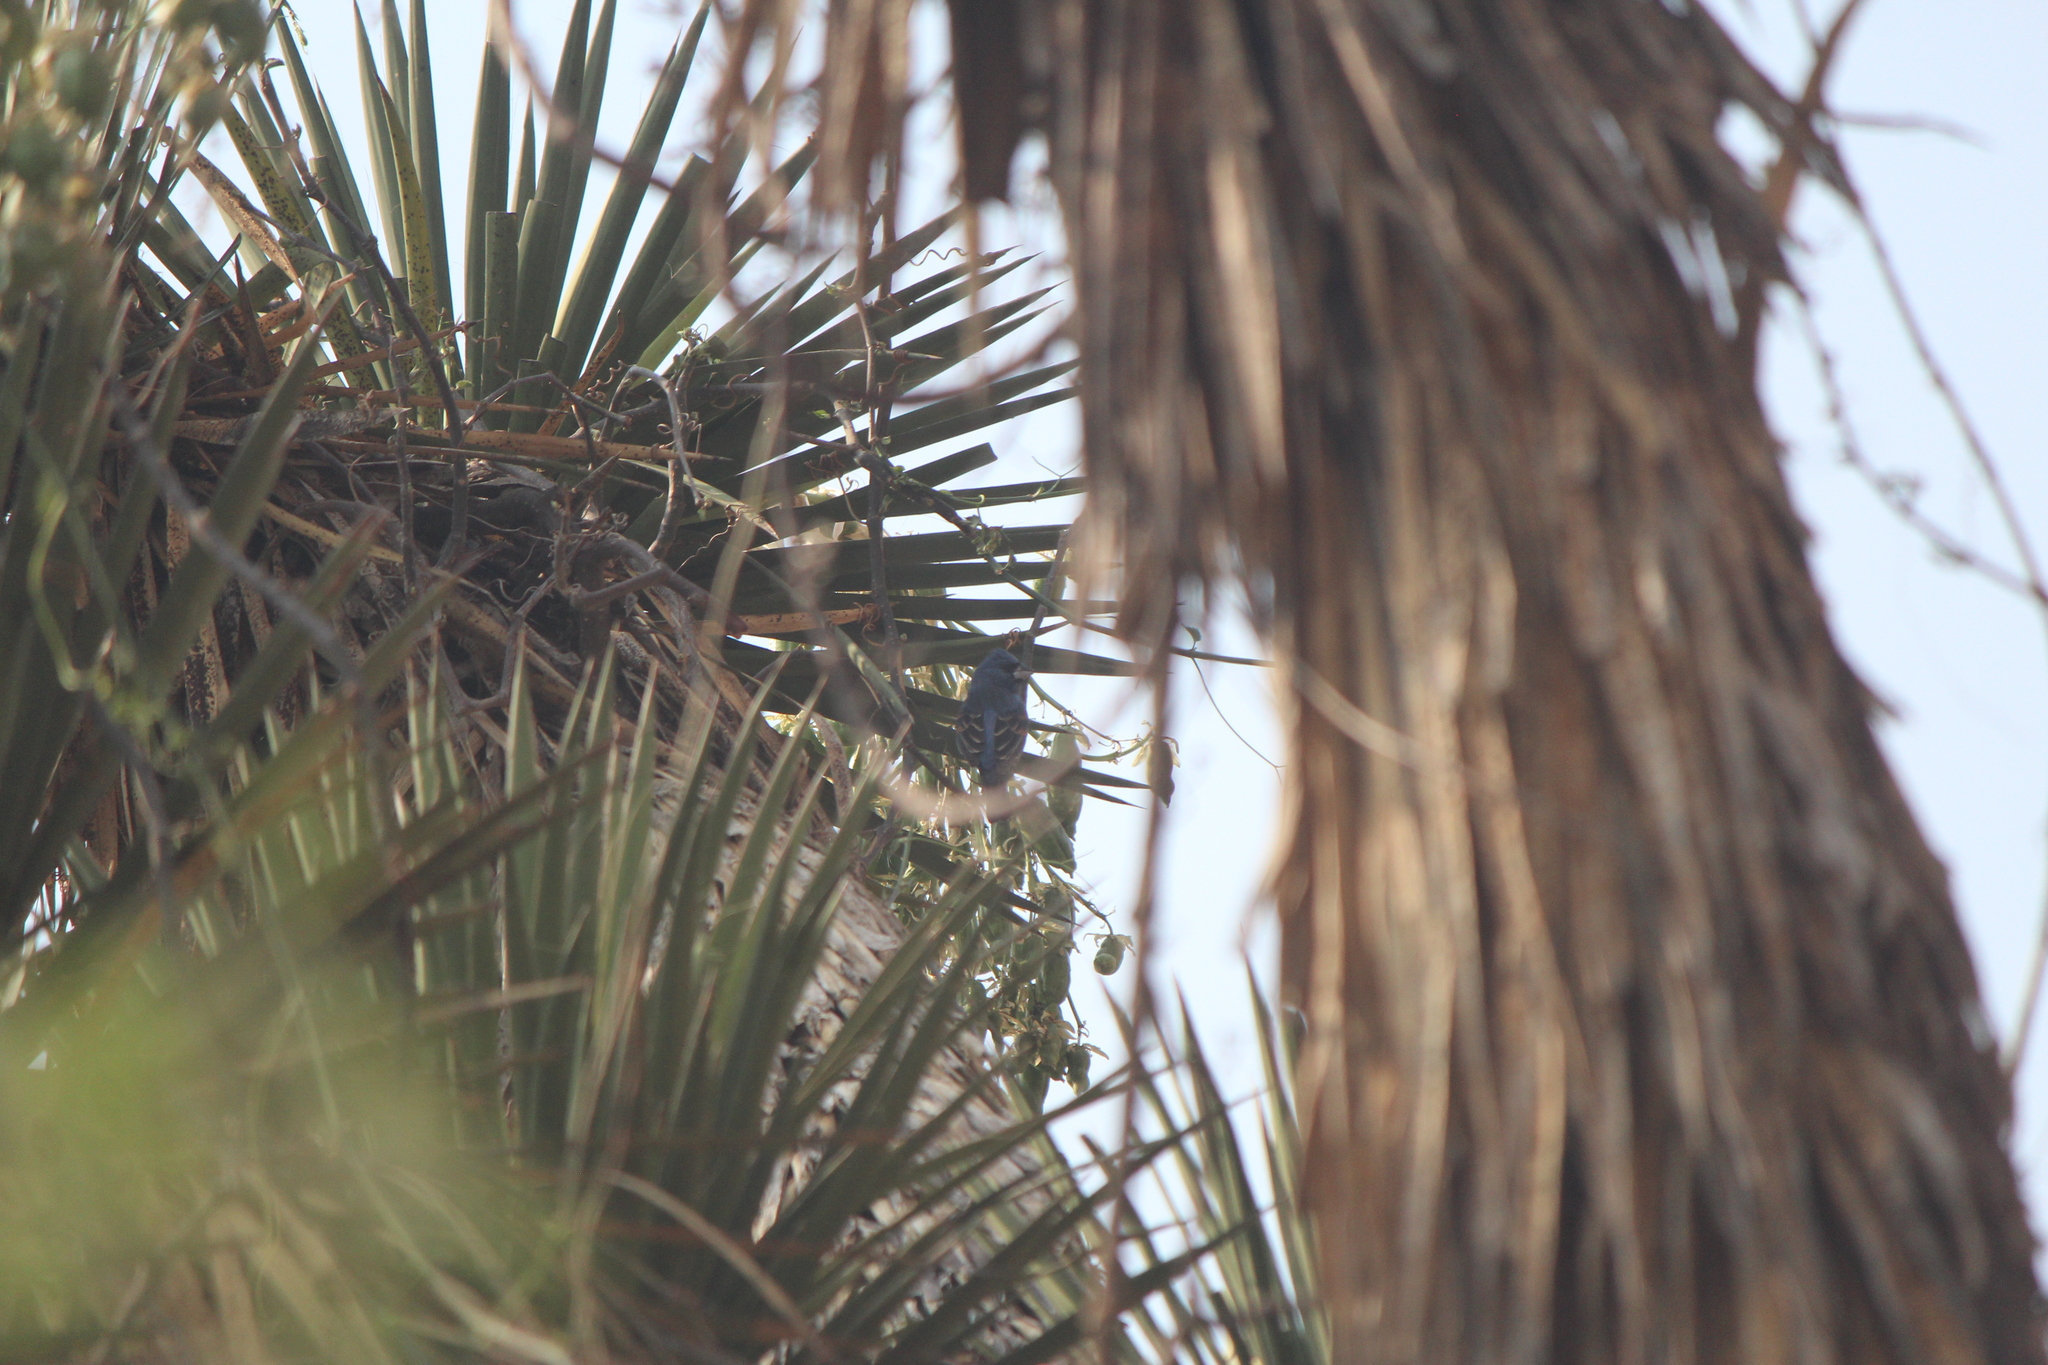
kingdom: Animalia
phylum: Chordata
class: Aves
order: Passeriformes
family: Cardinalidae
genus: Passerina
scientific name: Passerina caerulea
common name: Blue grosbeak
